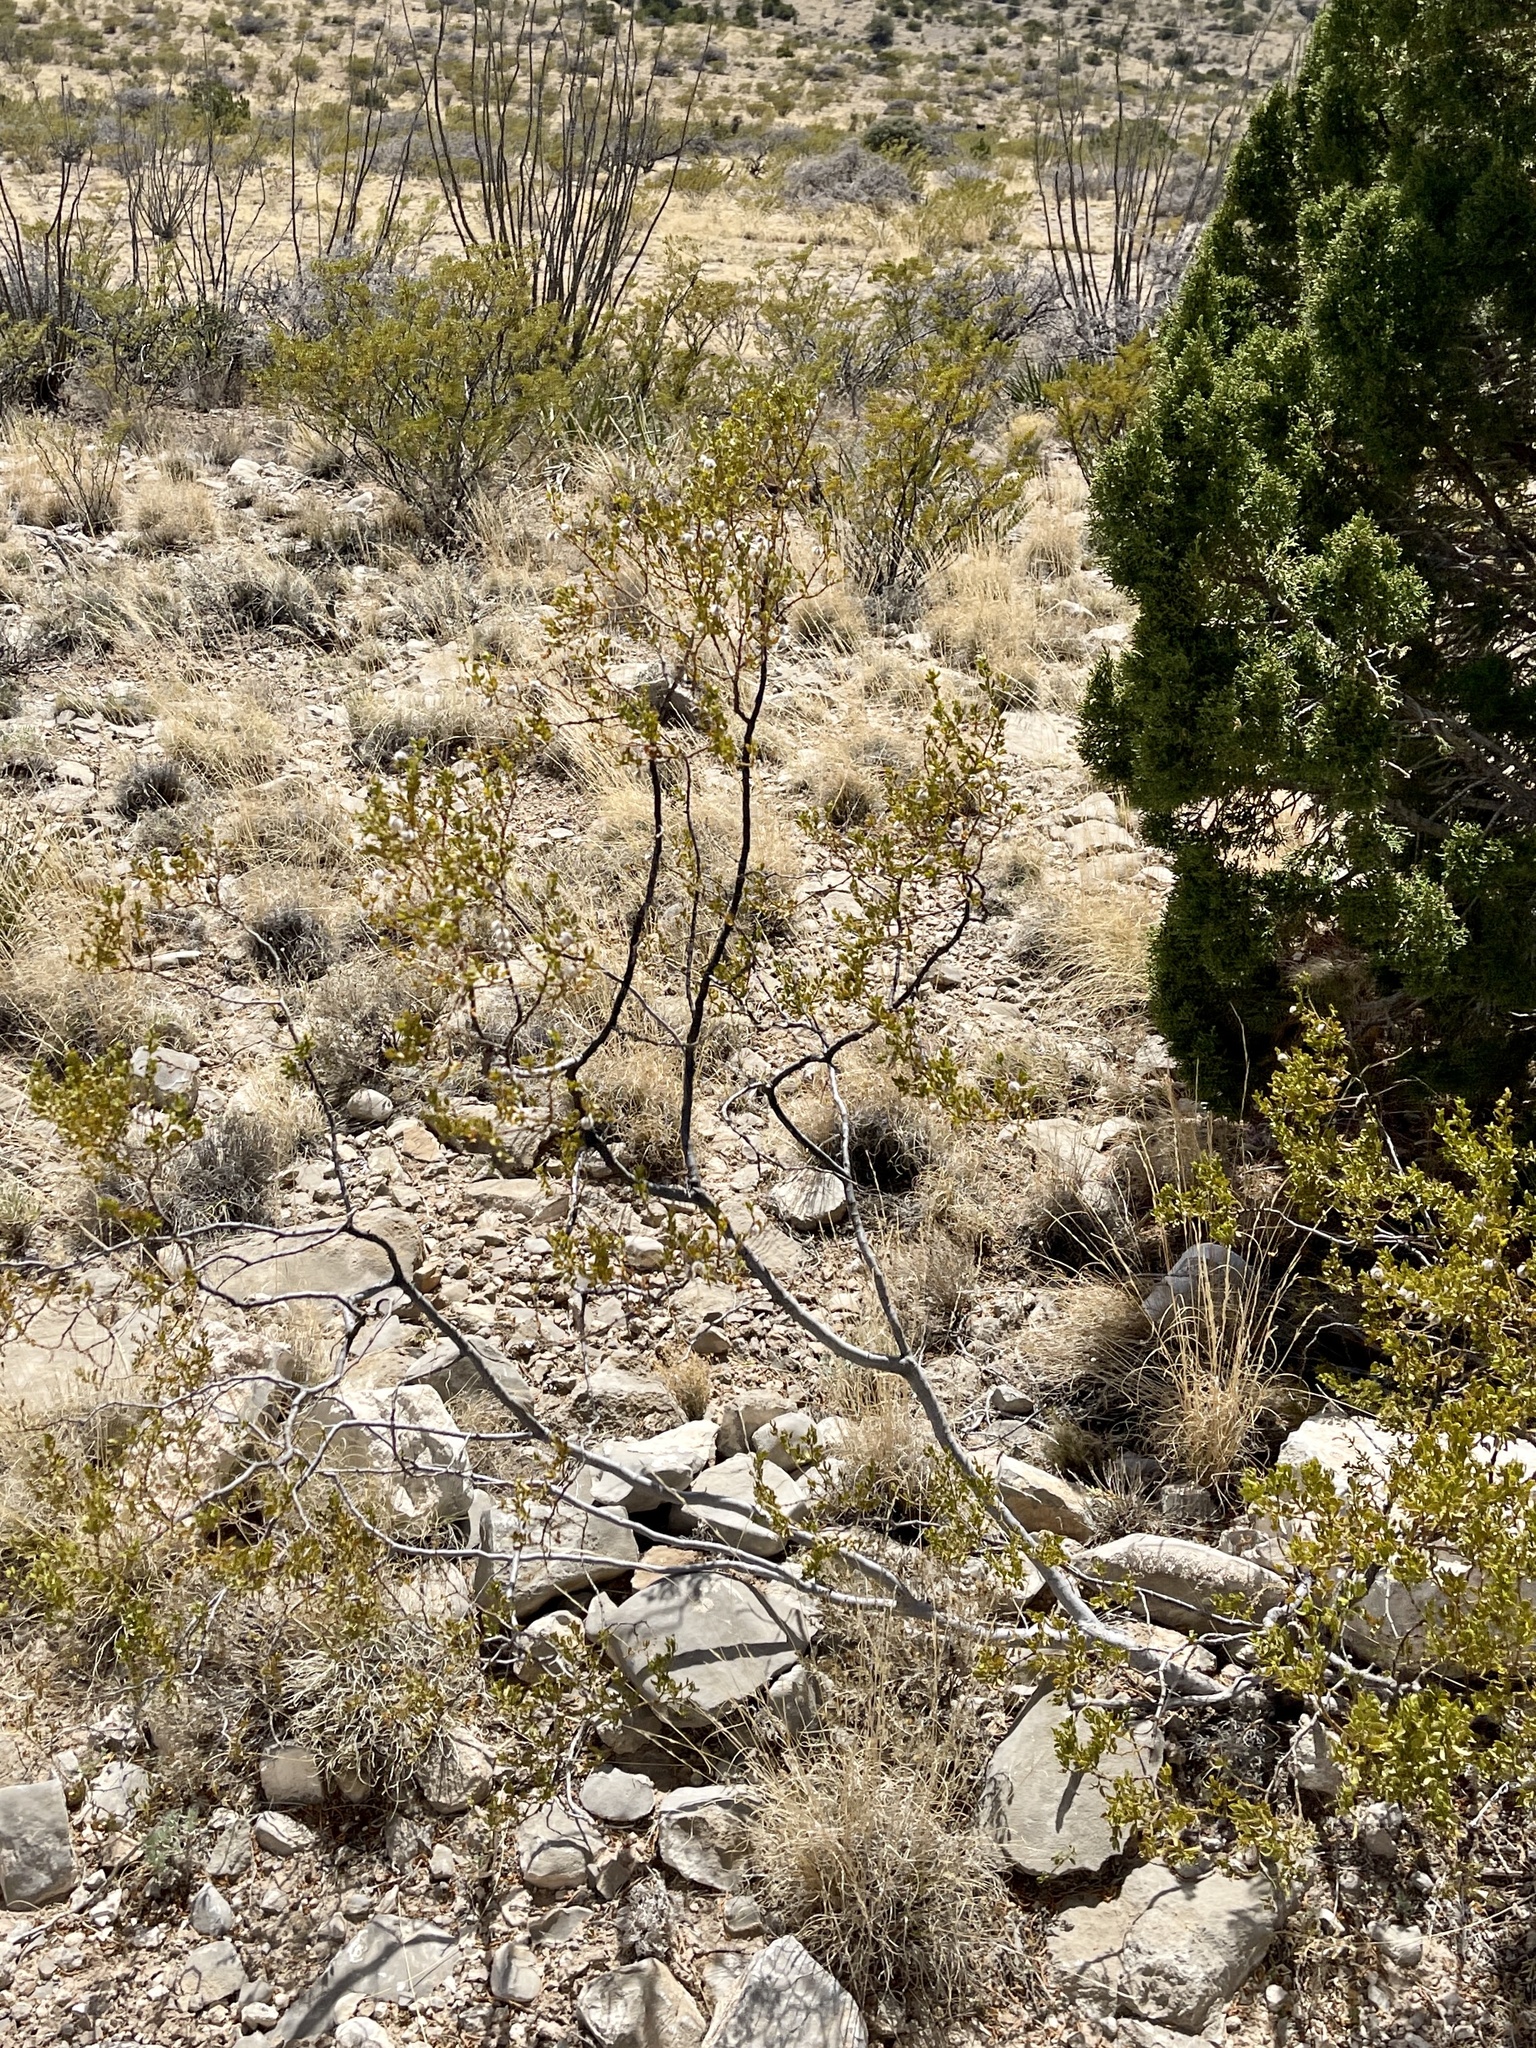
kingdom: Plantae
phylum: Tracheophyta
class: Magnoliopsida
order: Zygophyllales
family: Zygophyllaceae
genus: Larrea
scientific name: Larrea tridentata
